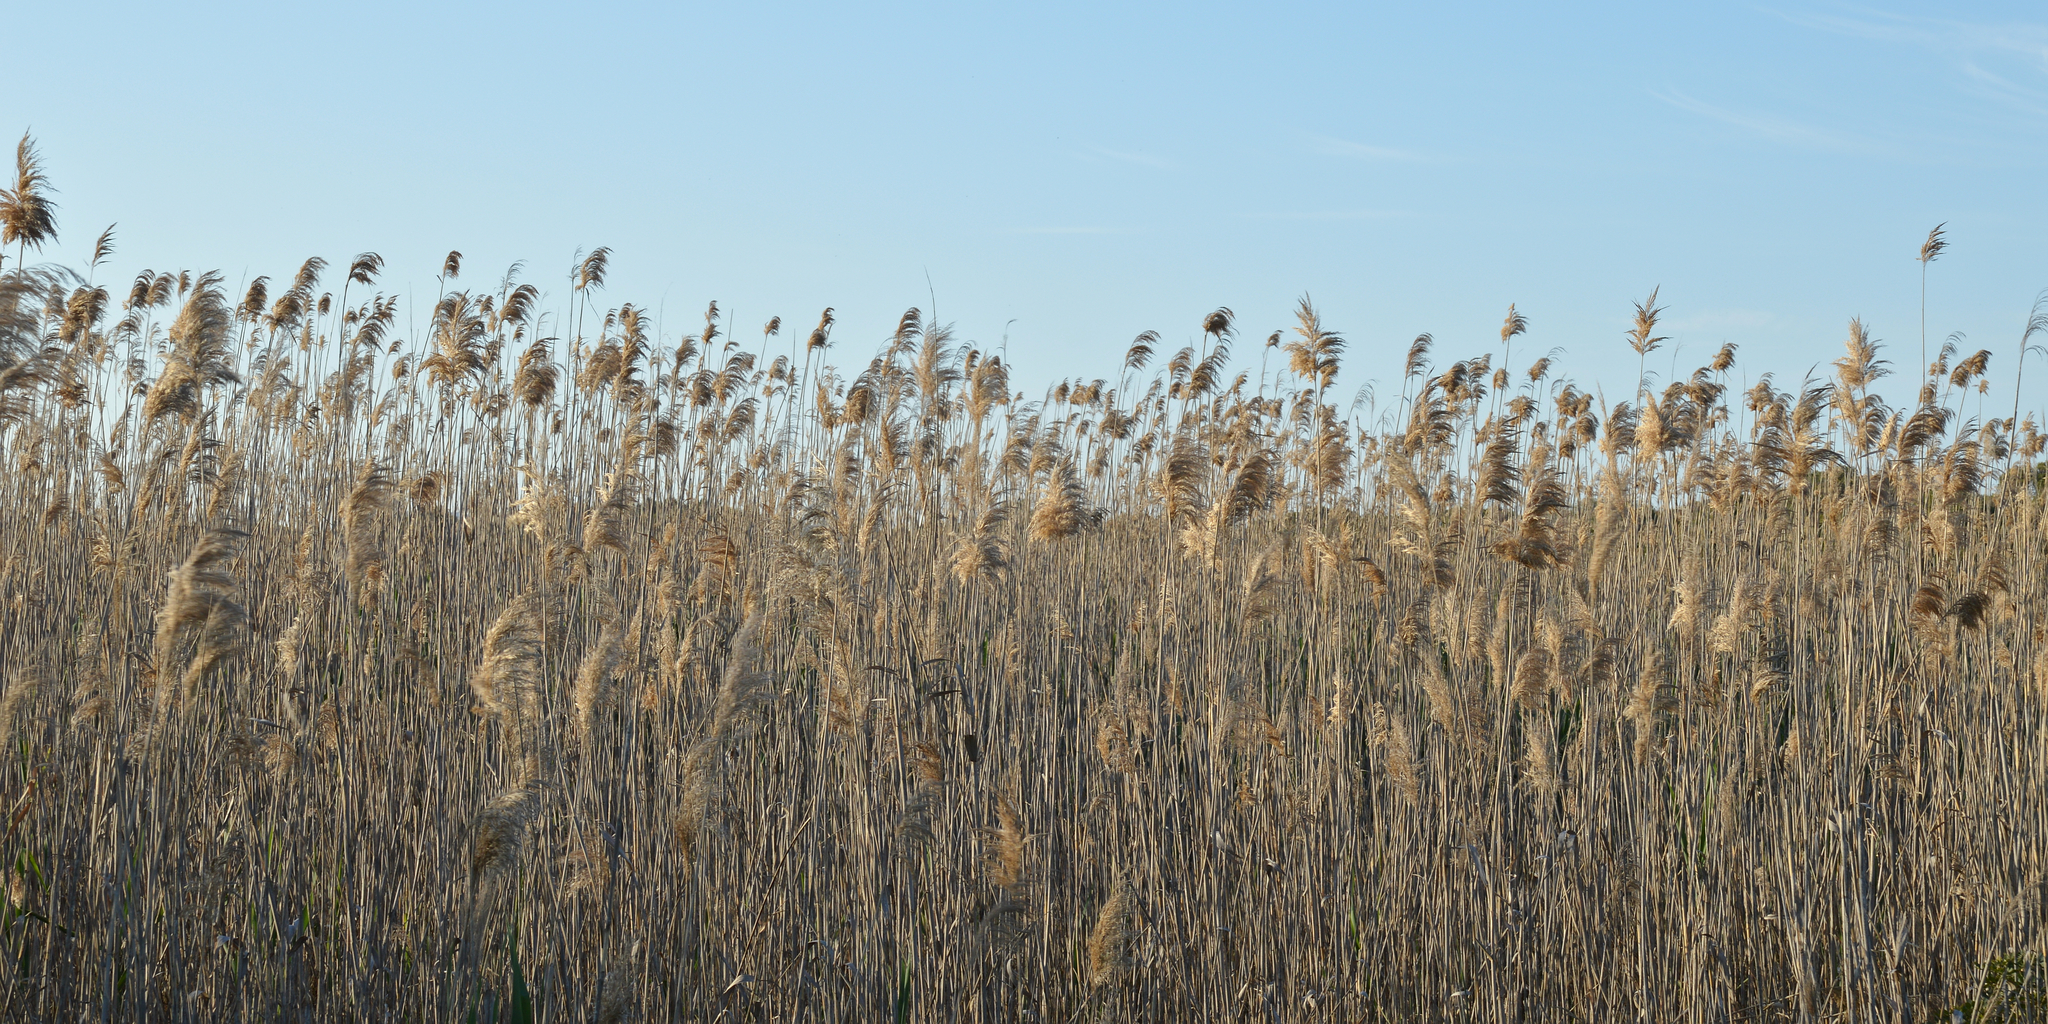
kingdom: Plantae
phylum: Tracheophyta
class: Liliopsida
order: Poales
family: Poaceae
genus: Phragmites
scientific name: Phragmites australis
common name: Common reed
